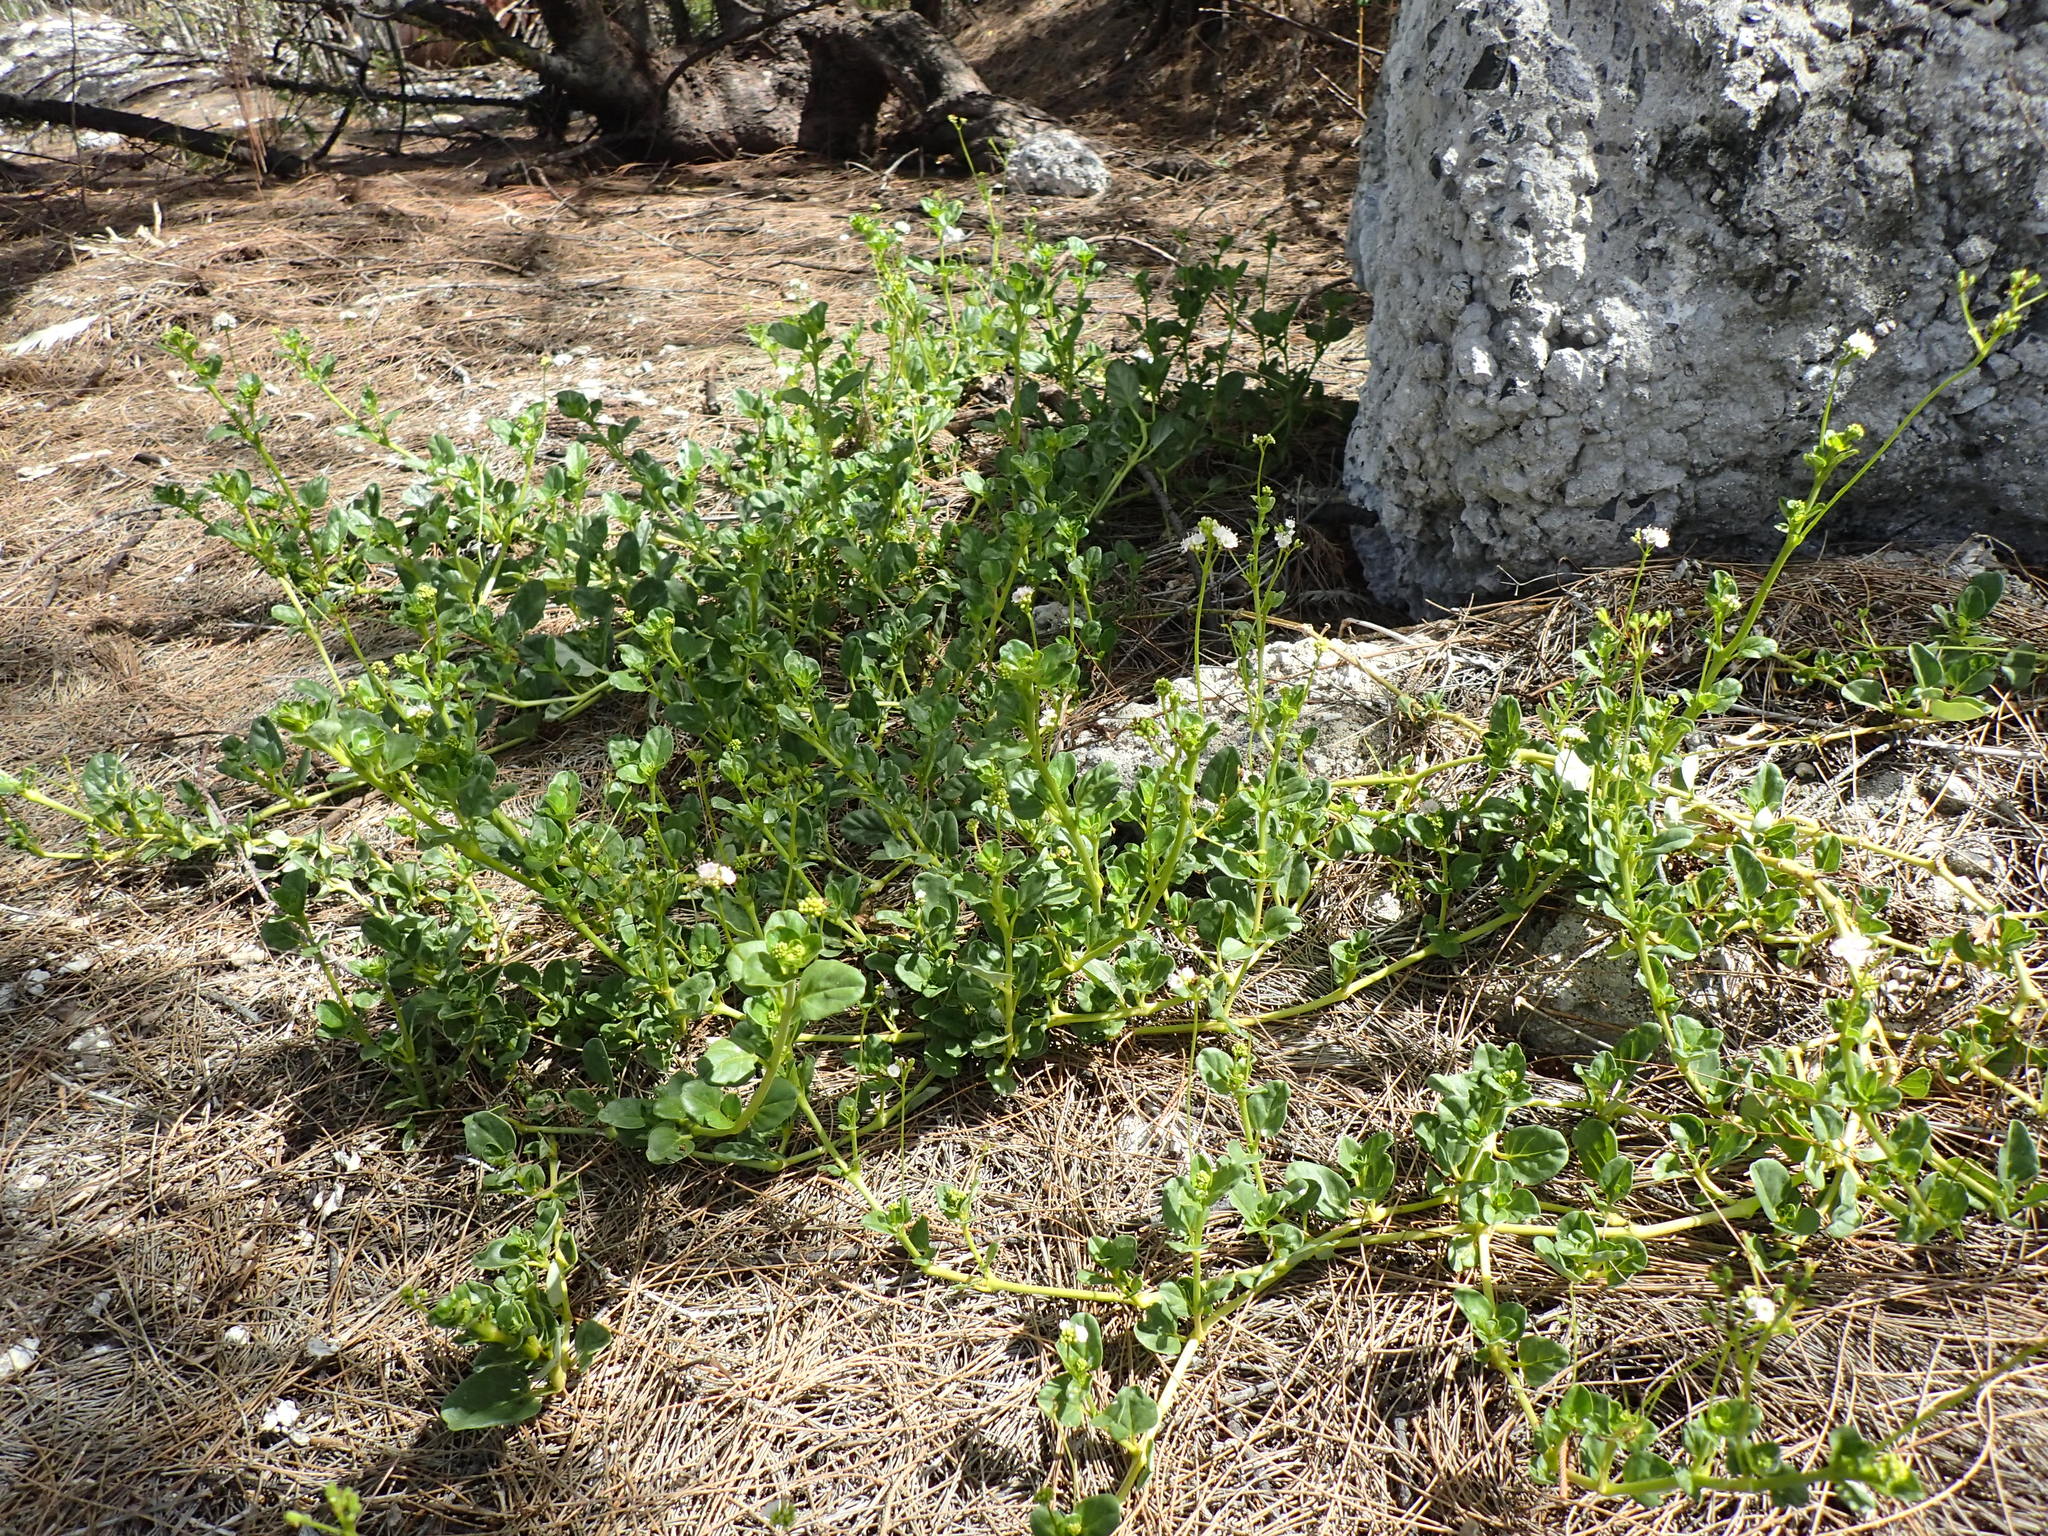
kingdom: Plantae
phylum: Tracheophyta
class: Magnoliopsida
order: Caryophyllales
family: Nyctaginaceae
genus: Boerhavia
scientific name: Boerhavia repens
